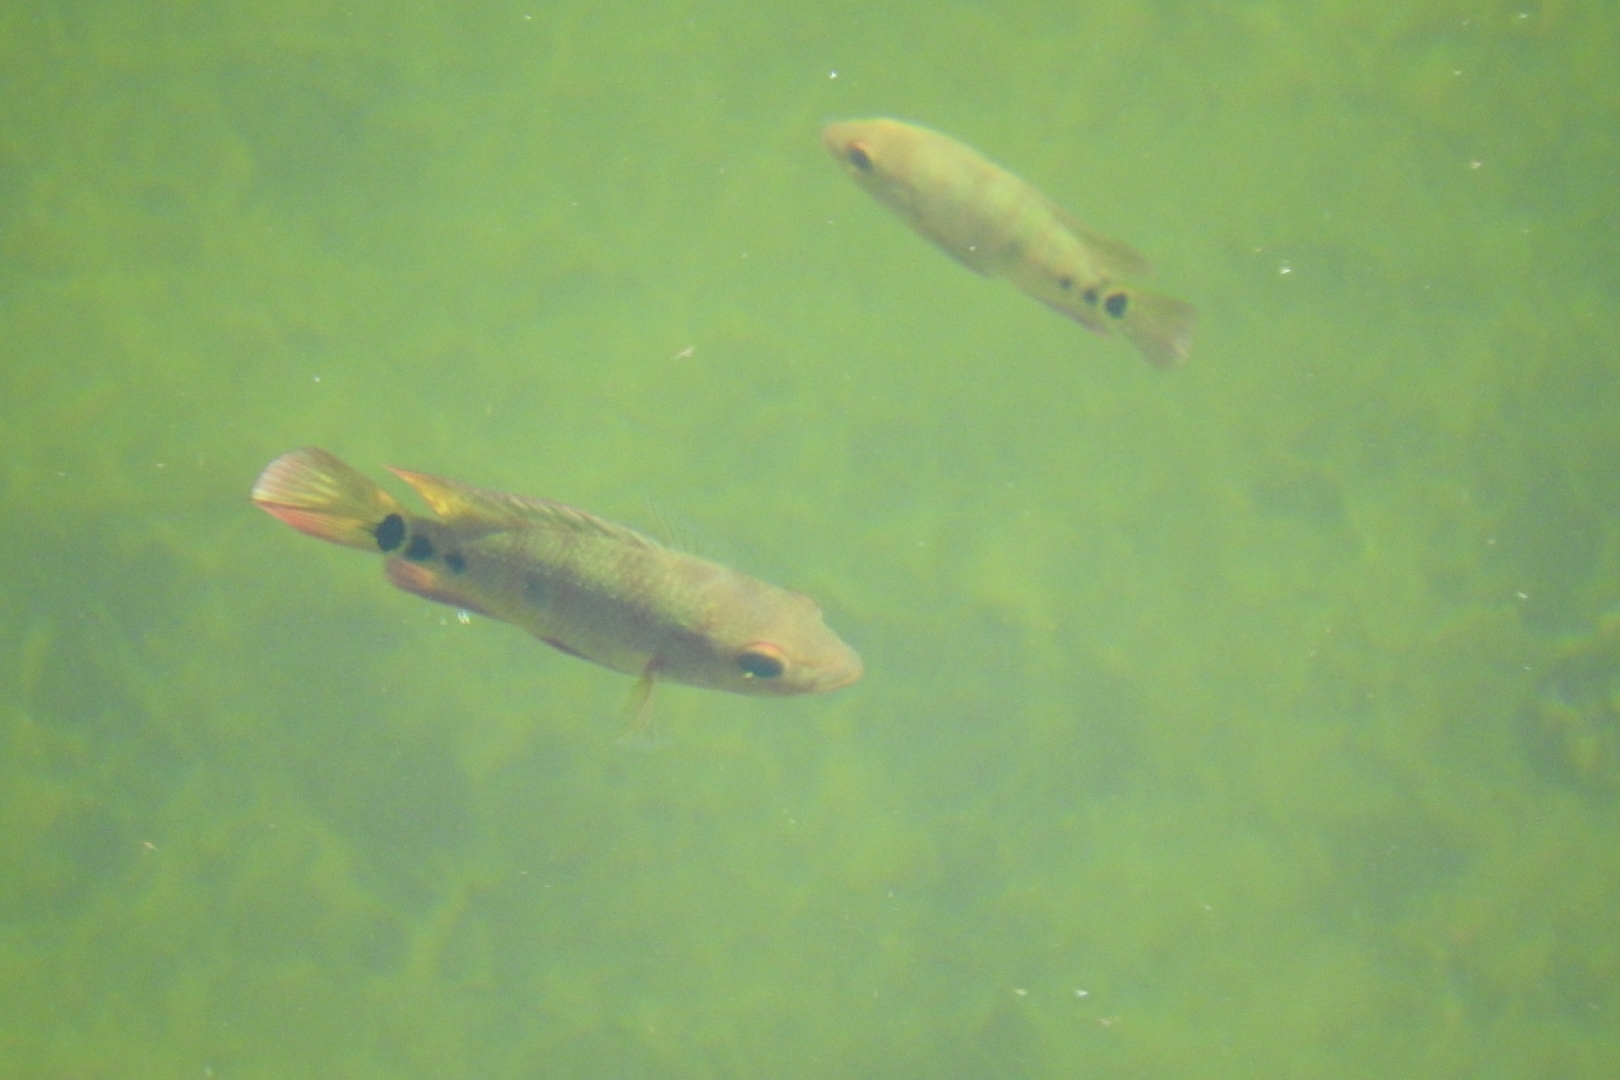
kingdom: Animalia
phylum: Chordata
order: Perciformes
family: Cichlidae
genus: Mayaheros
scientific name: Mayaheros urophthalmus
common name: Mayan cichlid
